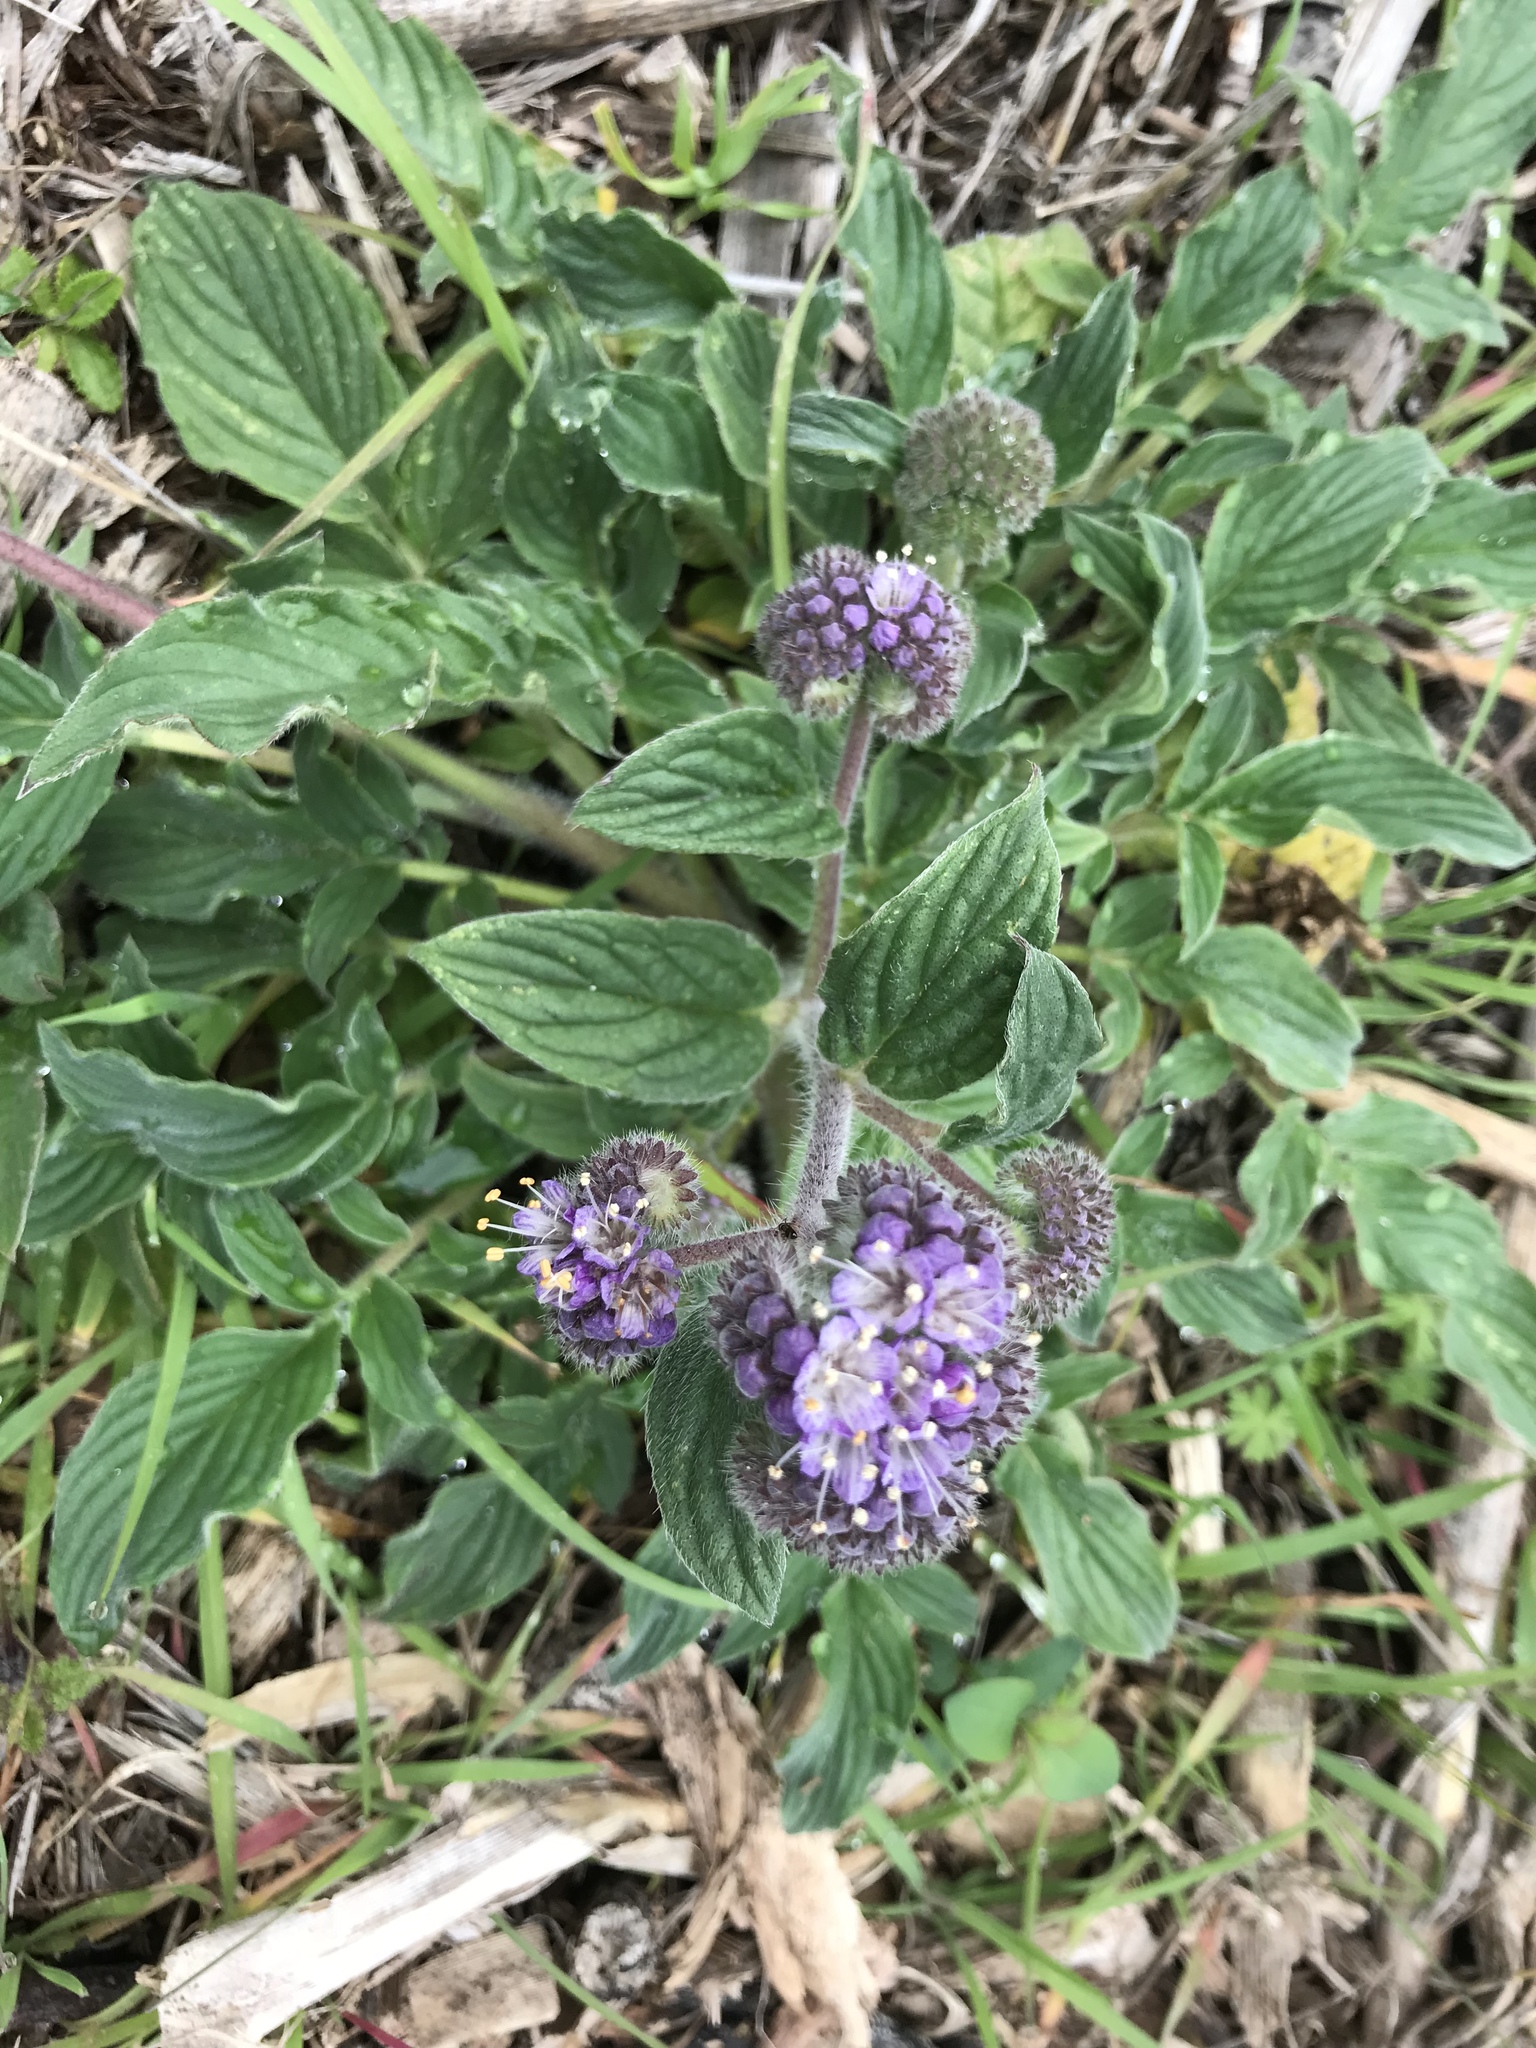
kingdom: Plantae
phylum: Tracheophyta
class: Magnoliopsida
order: Boraginales
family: Hydrophyllaceae
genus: Phacelia
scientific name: Phacelia californica
